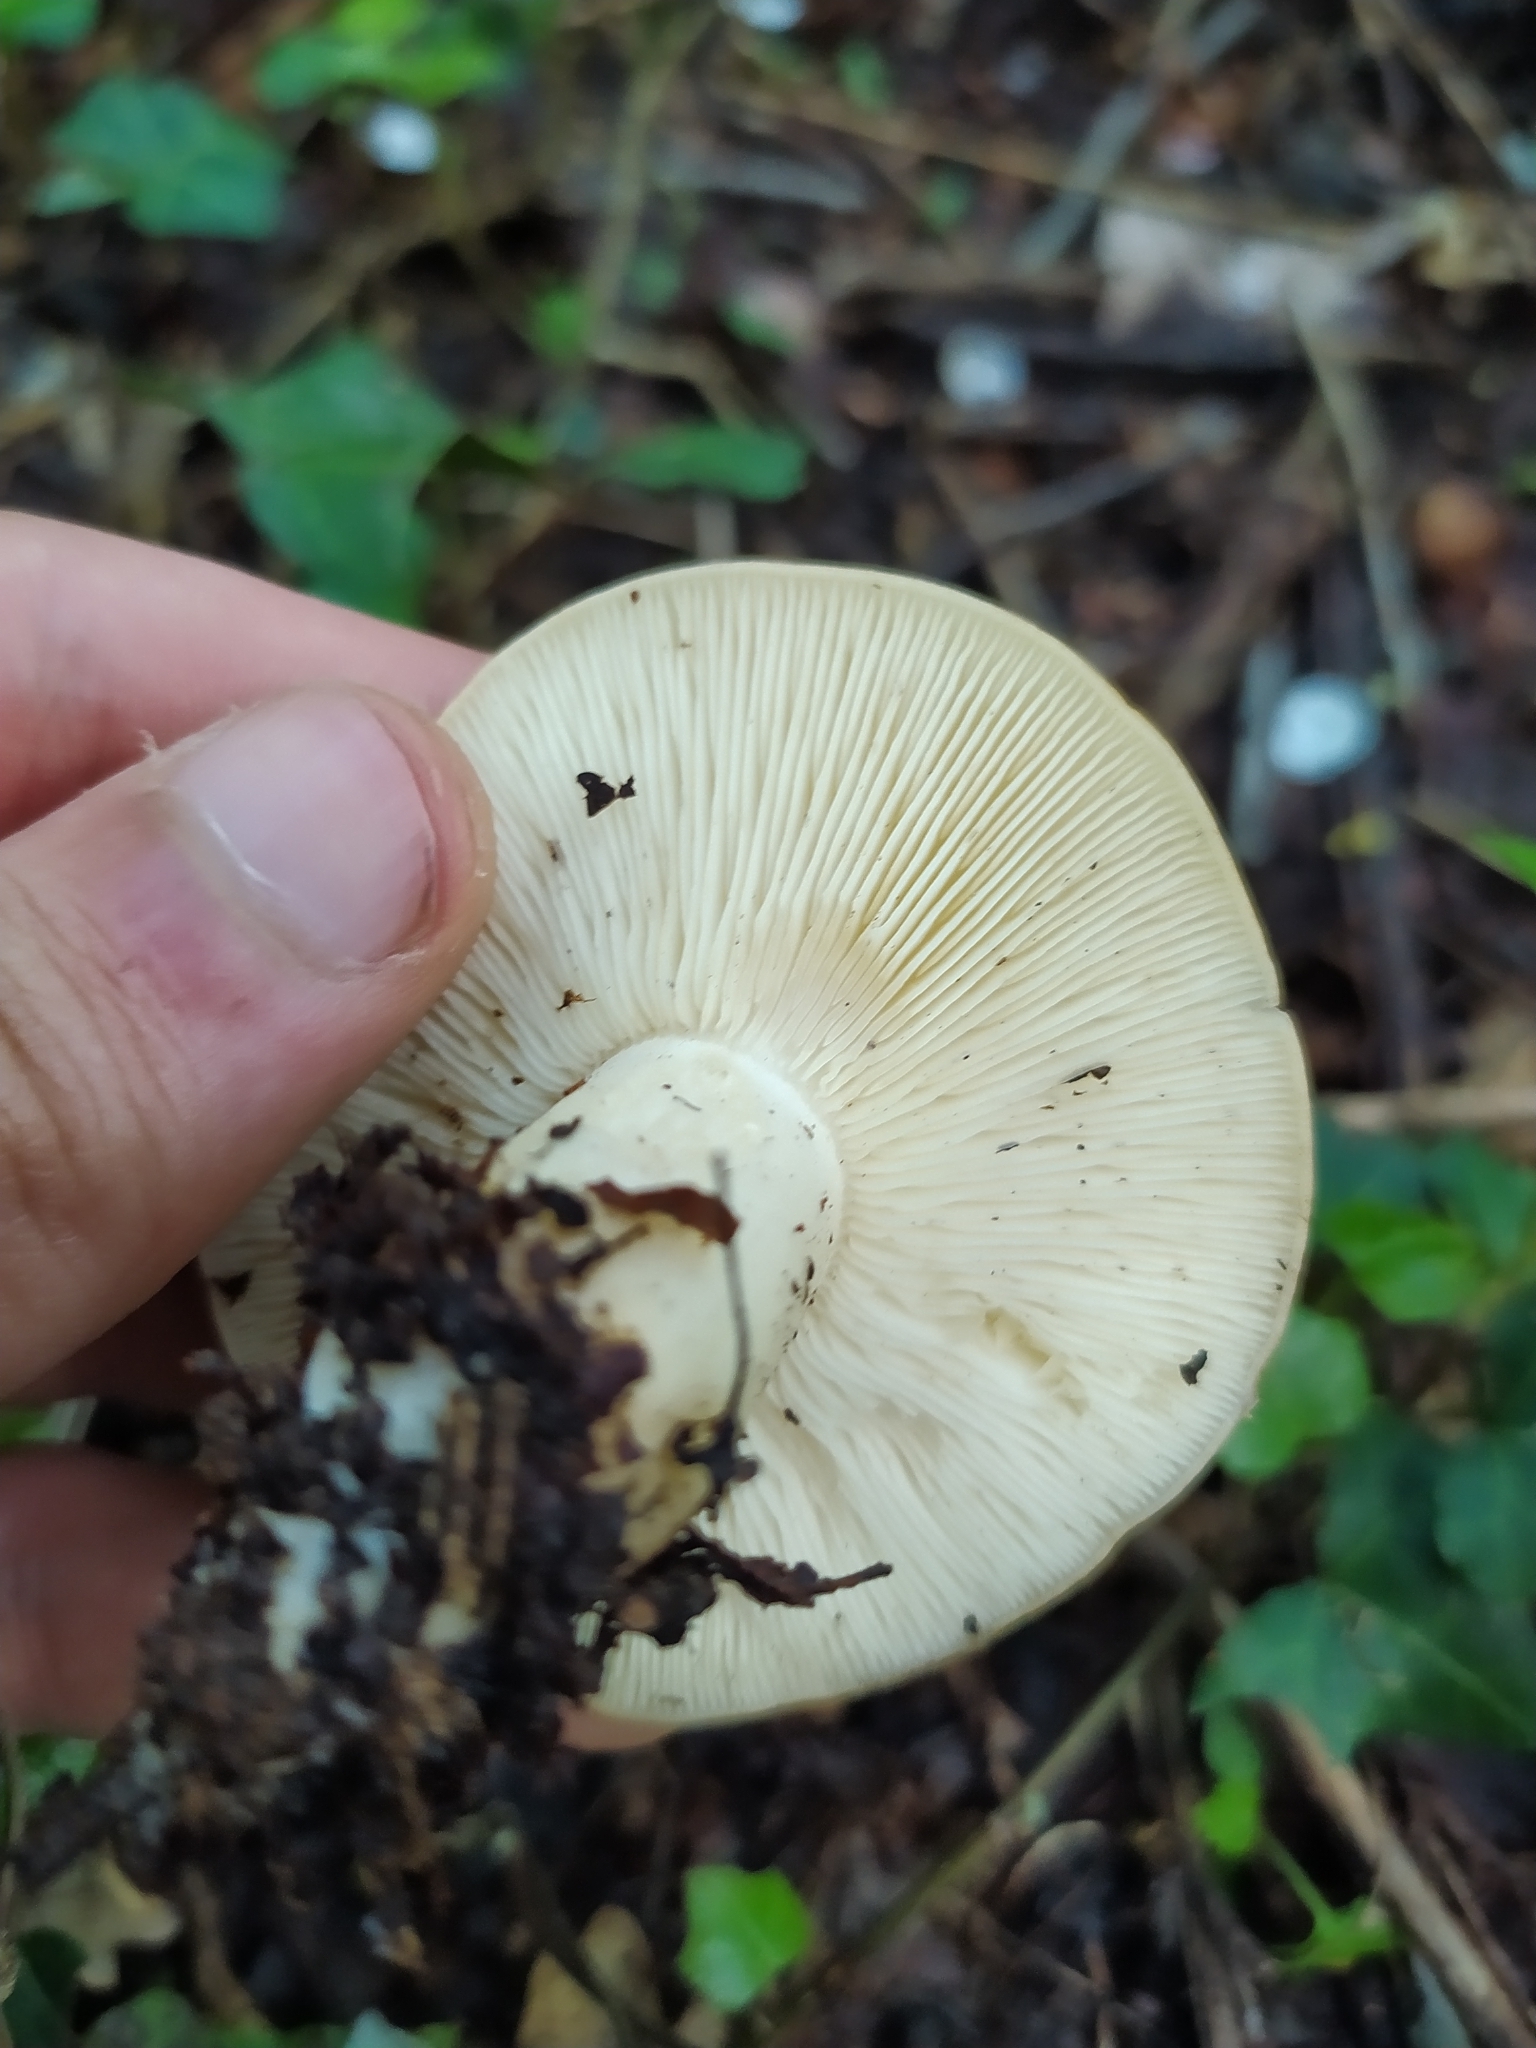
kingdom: Fungi
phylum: Basidiomycota
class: Agaricomycetes
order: Agaricales
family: Lyophyllaceae
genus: Calocybe
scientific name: Calocybe gambosa
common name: St. george's mushroom
